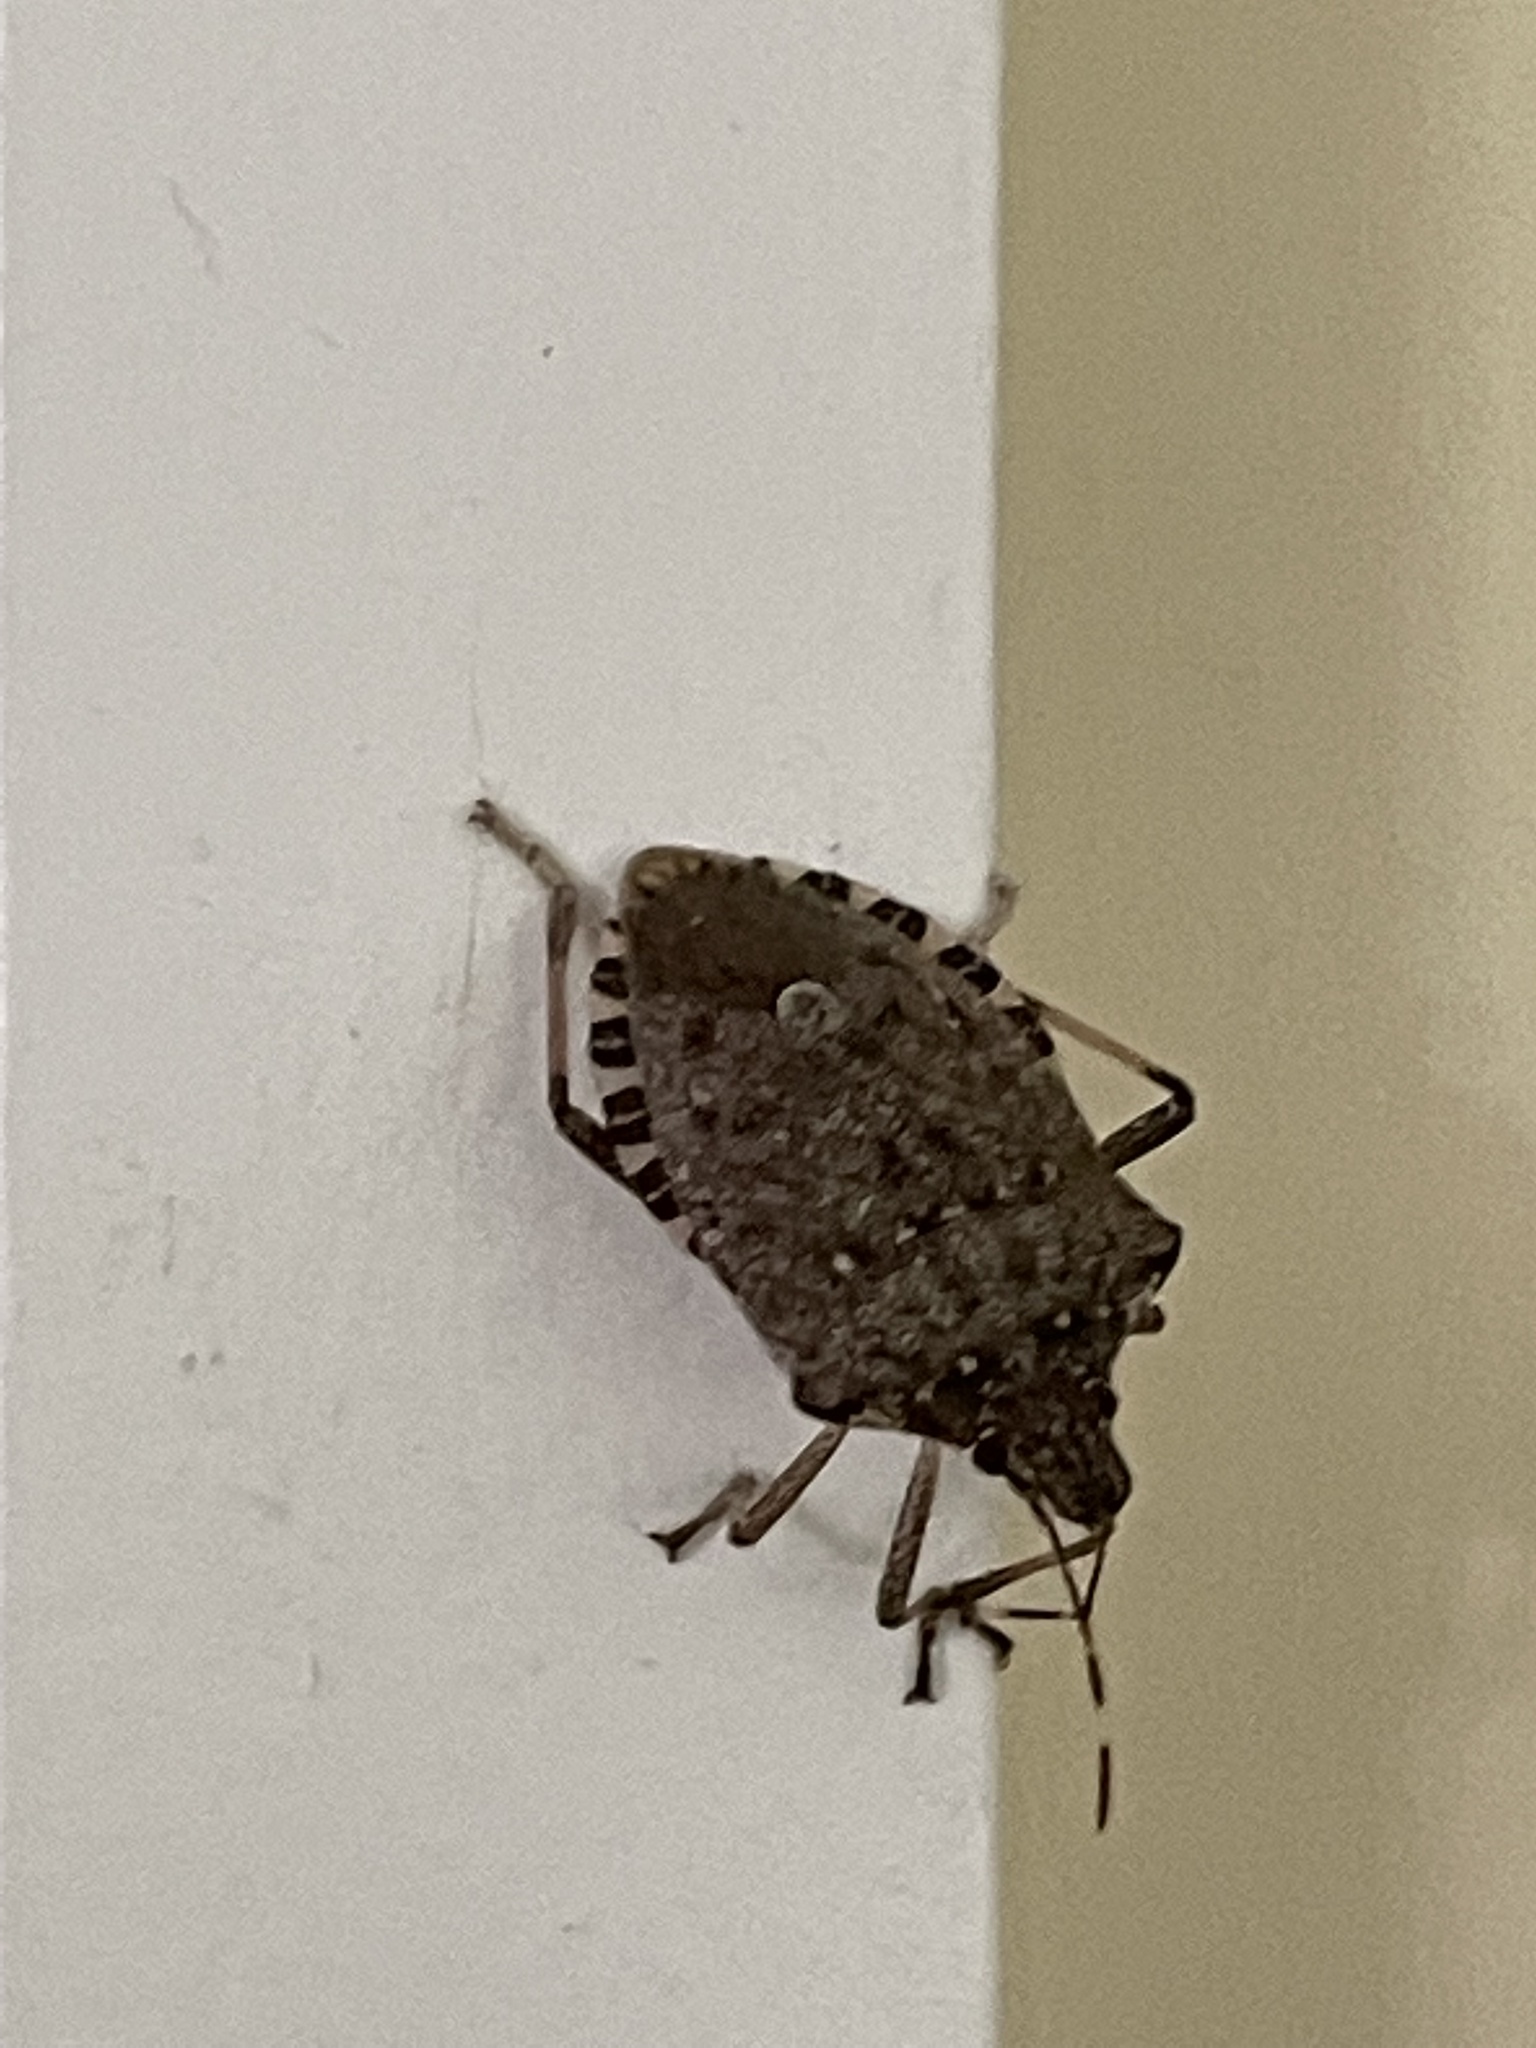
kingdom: Animalia
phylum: Arthropoda
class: Insecta
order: Hemiptera
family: Pentatomidae
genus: Halyomorpha
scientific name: Halyomorpha halys
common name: Brown marmorated stink bug
